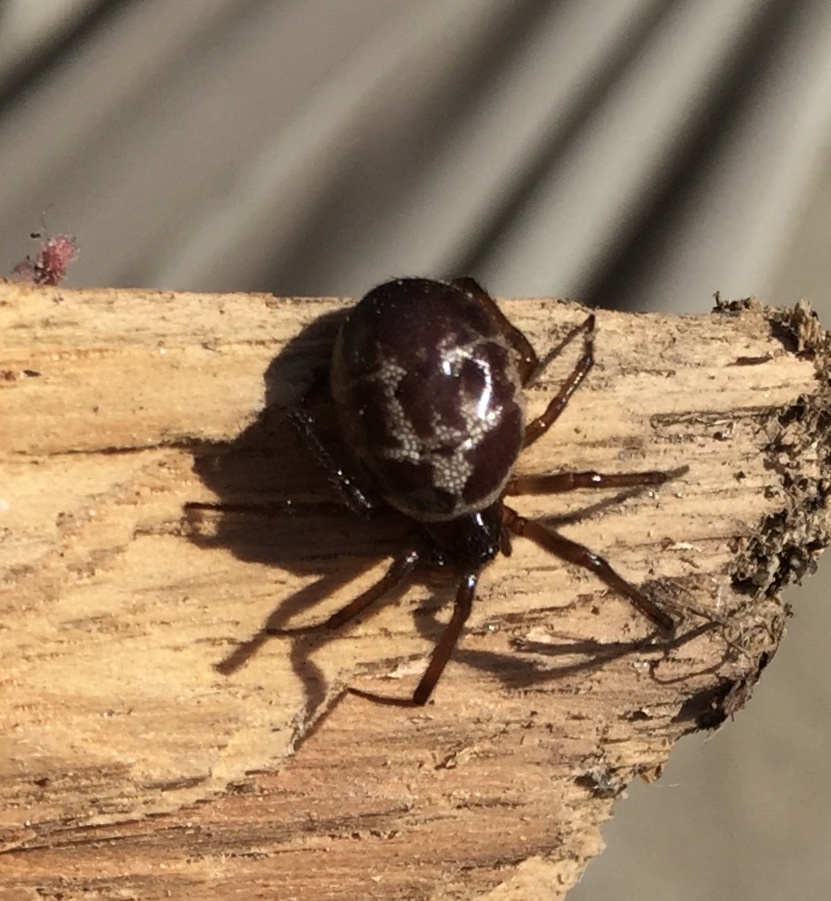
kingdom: Animalia
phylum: Arthropoda
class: Arachnida
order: Araneae
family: Theridiidae
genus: Steatoda
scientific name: Steatoda nobilis
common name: Cobweb weaver
